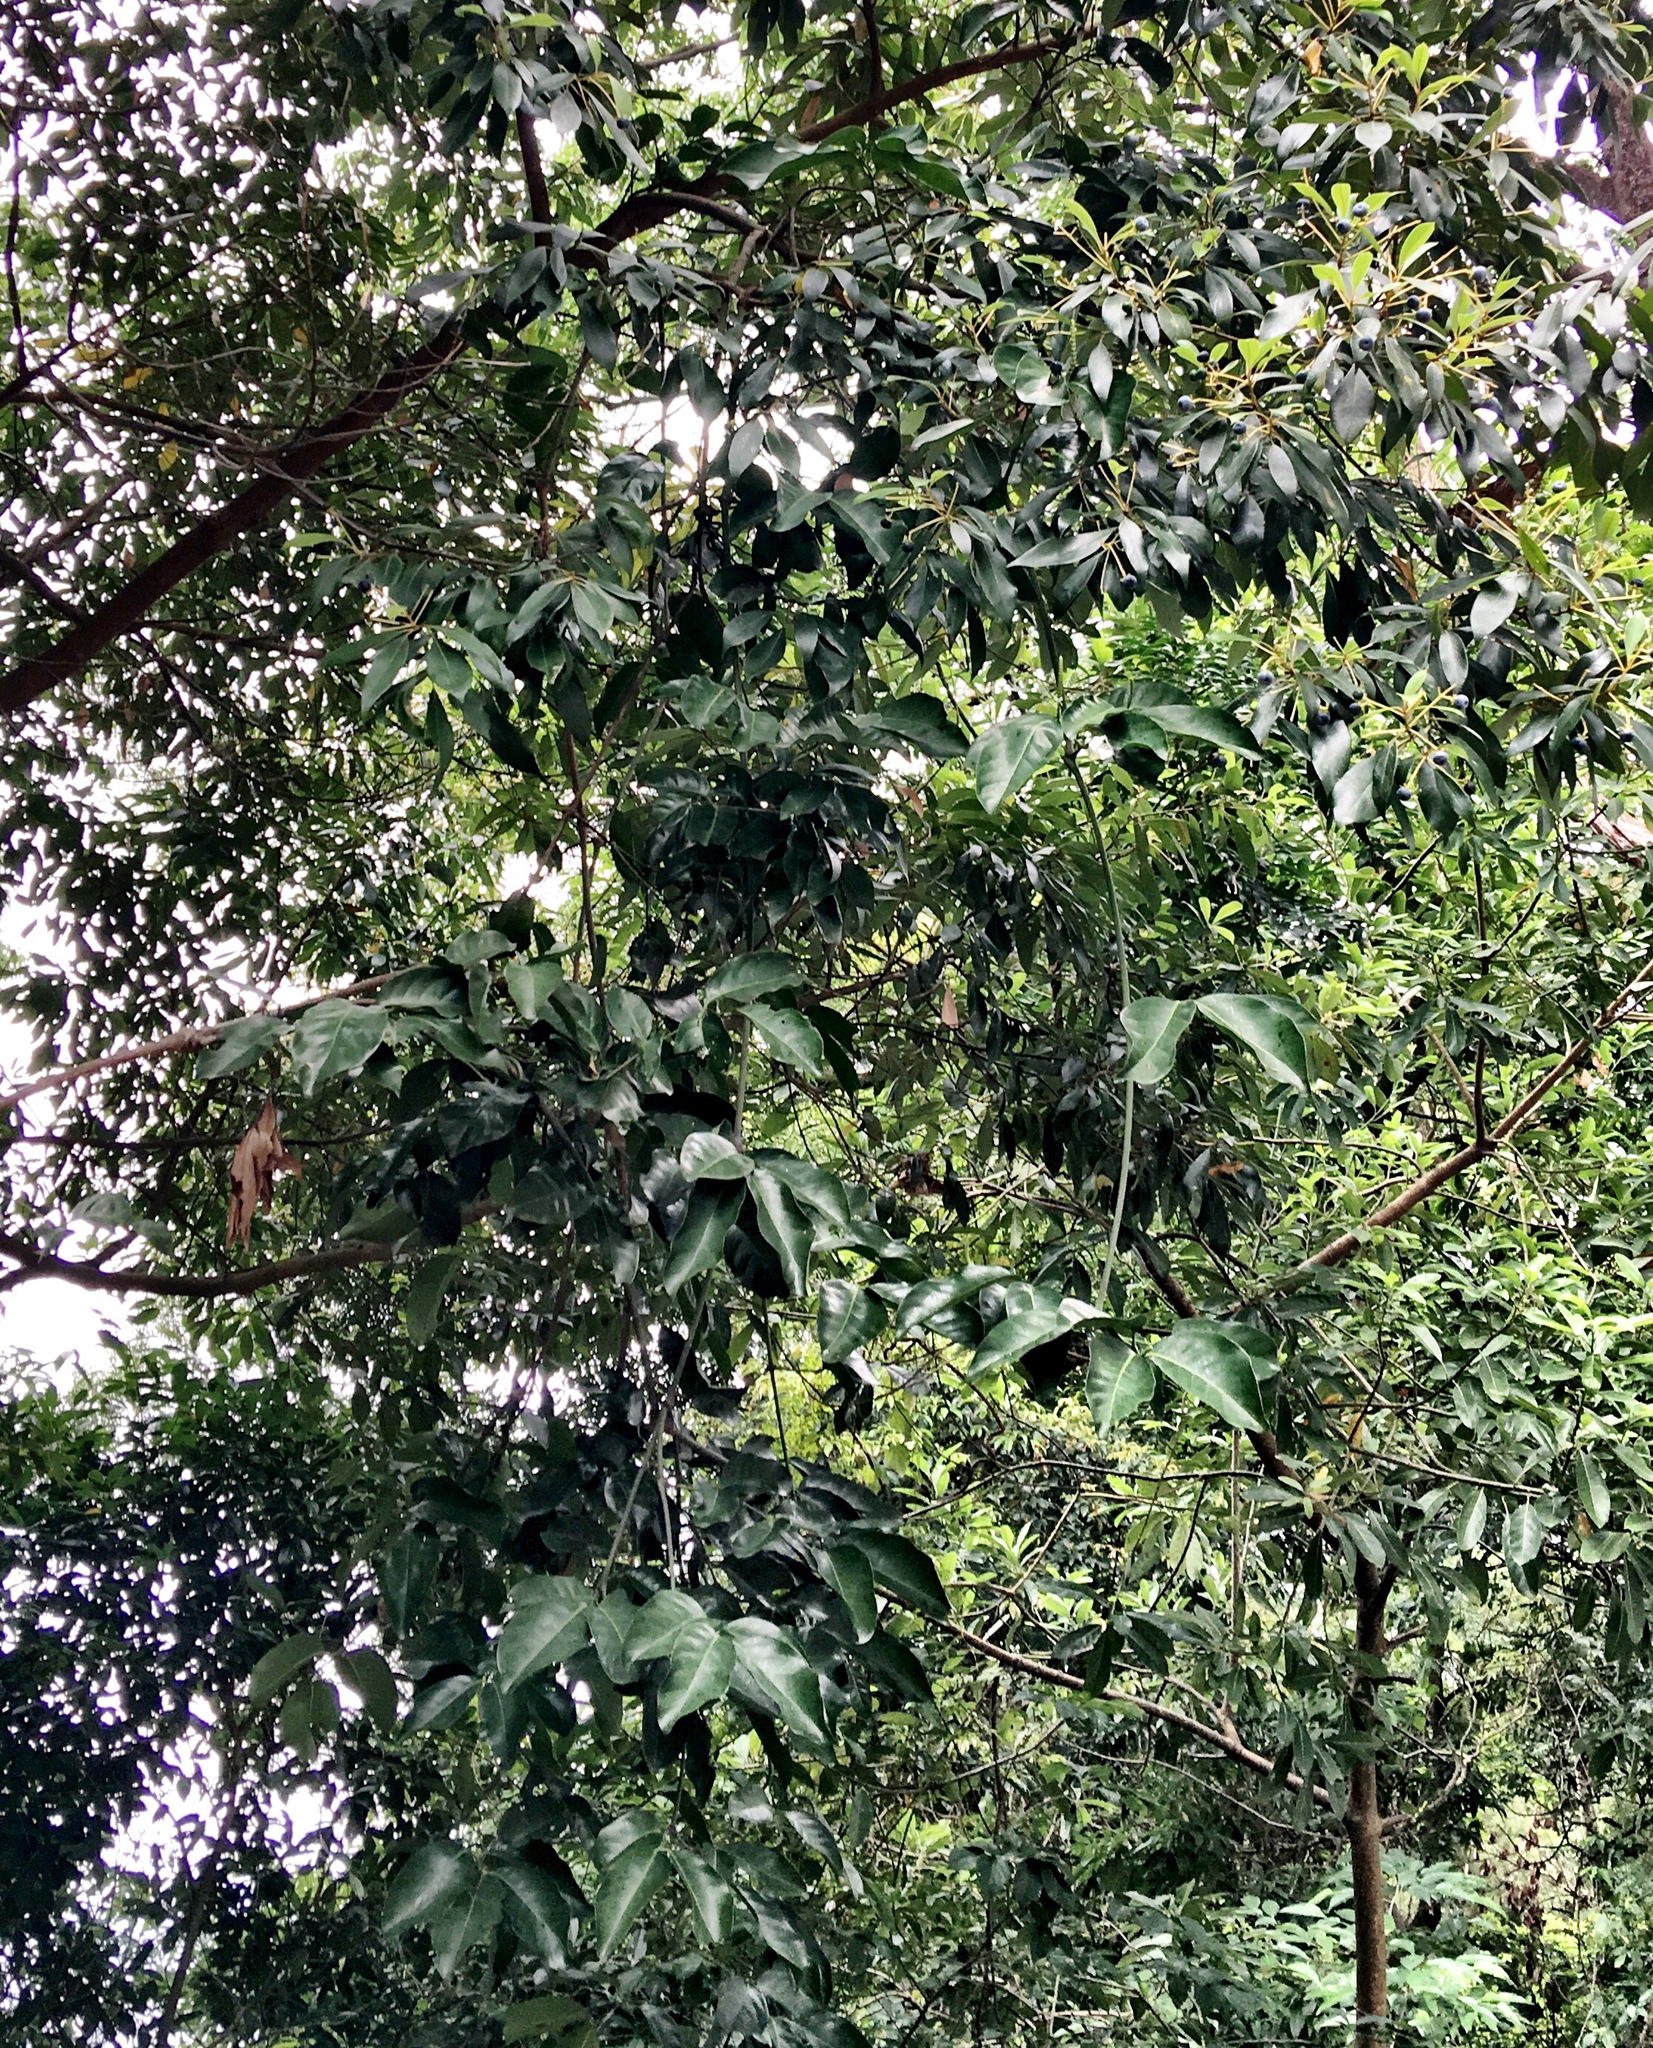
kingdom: Plantae
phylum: Tracheophyta
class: Gnetopsida
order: Gnetales
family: Gnetaceae
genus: Gnetum
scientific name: Gnetum luofuense
